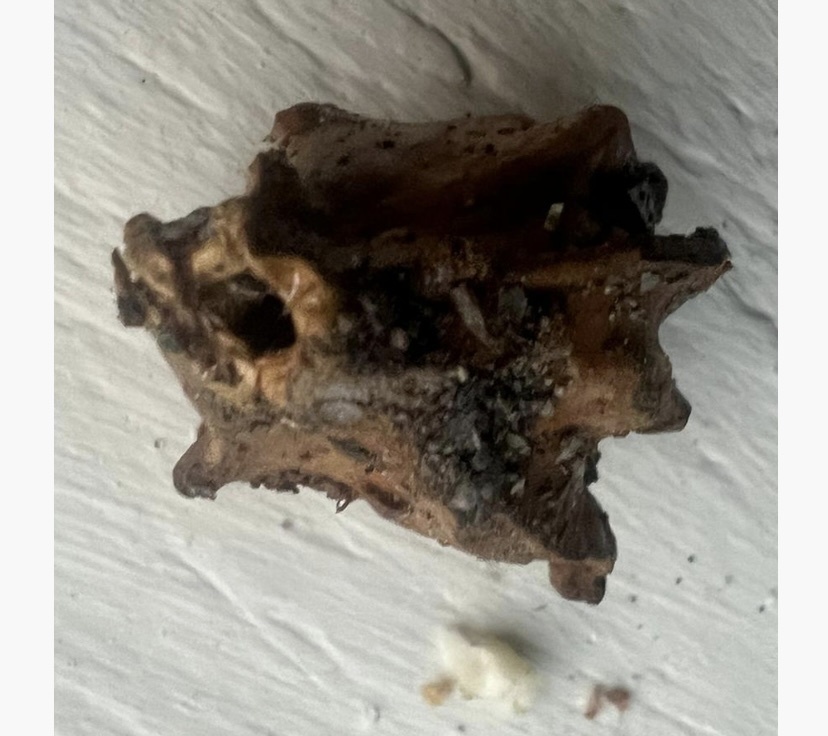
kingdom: Animalia
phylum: Arthropoda
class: Insecta
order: Hymenoptera
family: Cynipidae
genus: Andricus
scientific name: Andricus quercuscalicis
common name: Knopper gall
